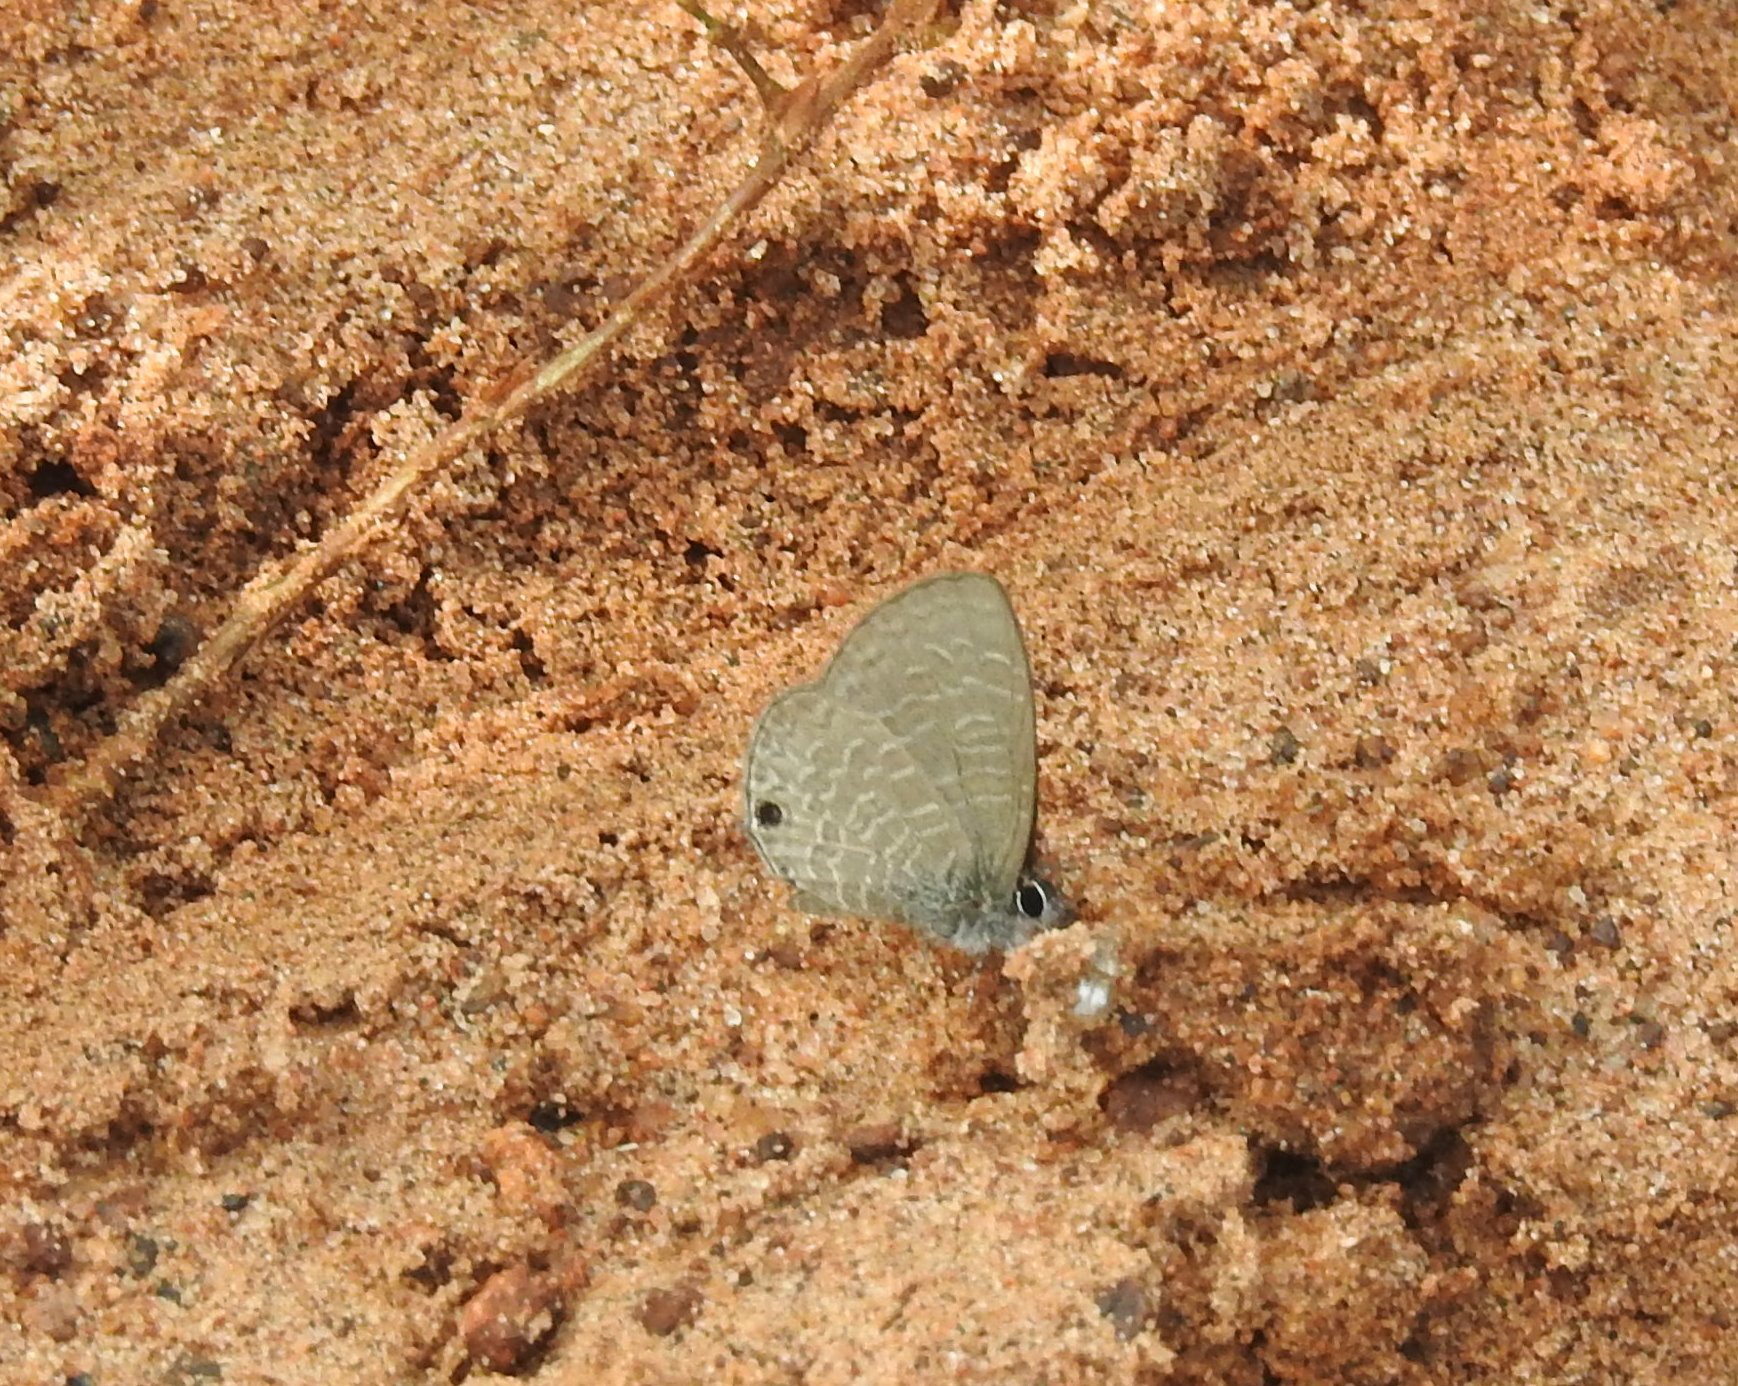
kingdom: Animalia
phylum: Arthropoda
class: Insecta
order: Lepidoptera
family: Lycaenidae
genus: Prosotas
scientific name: Prosotas dubiosa
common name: Tailless lineblue
